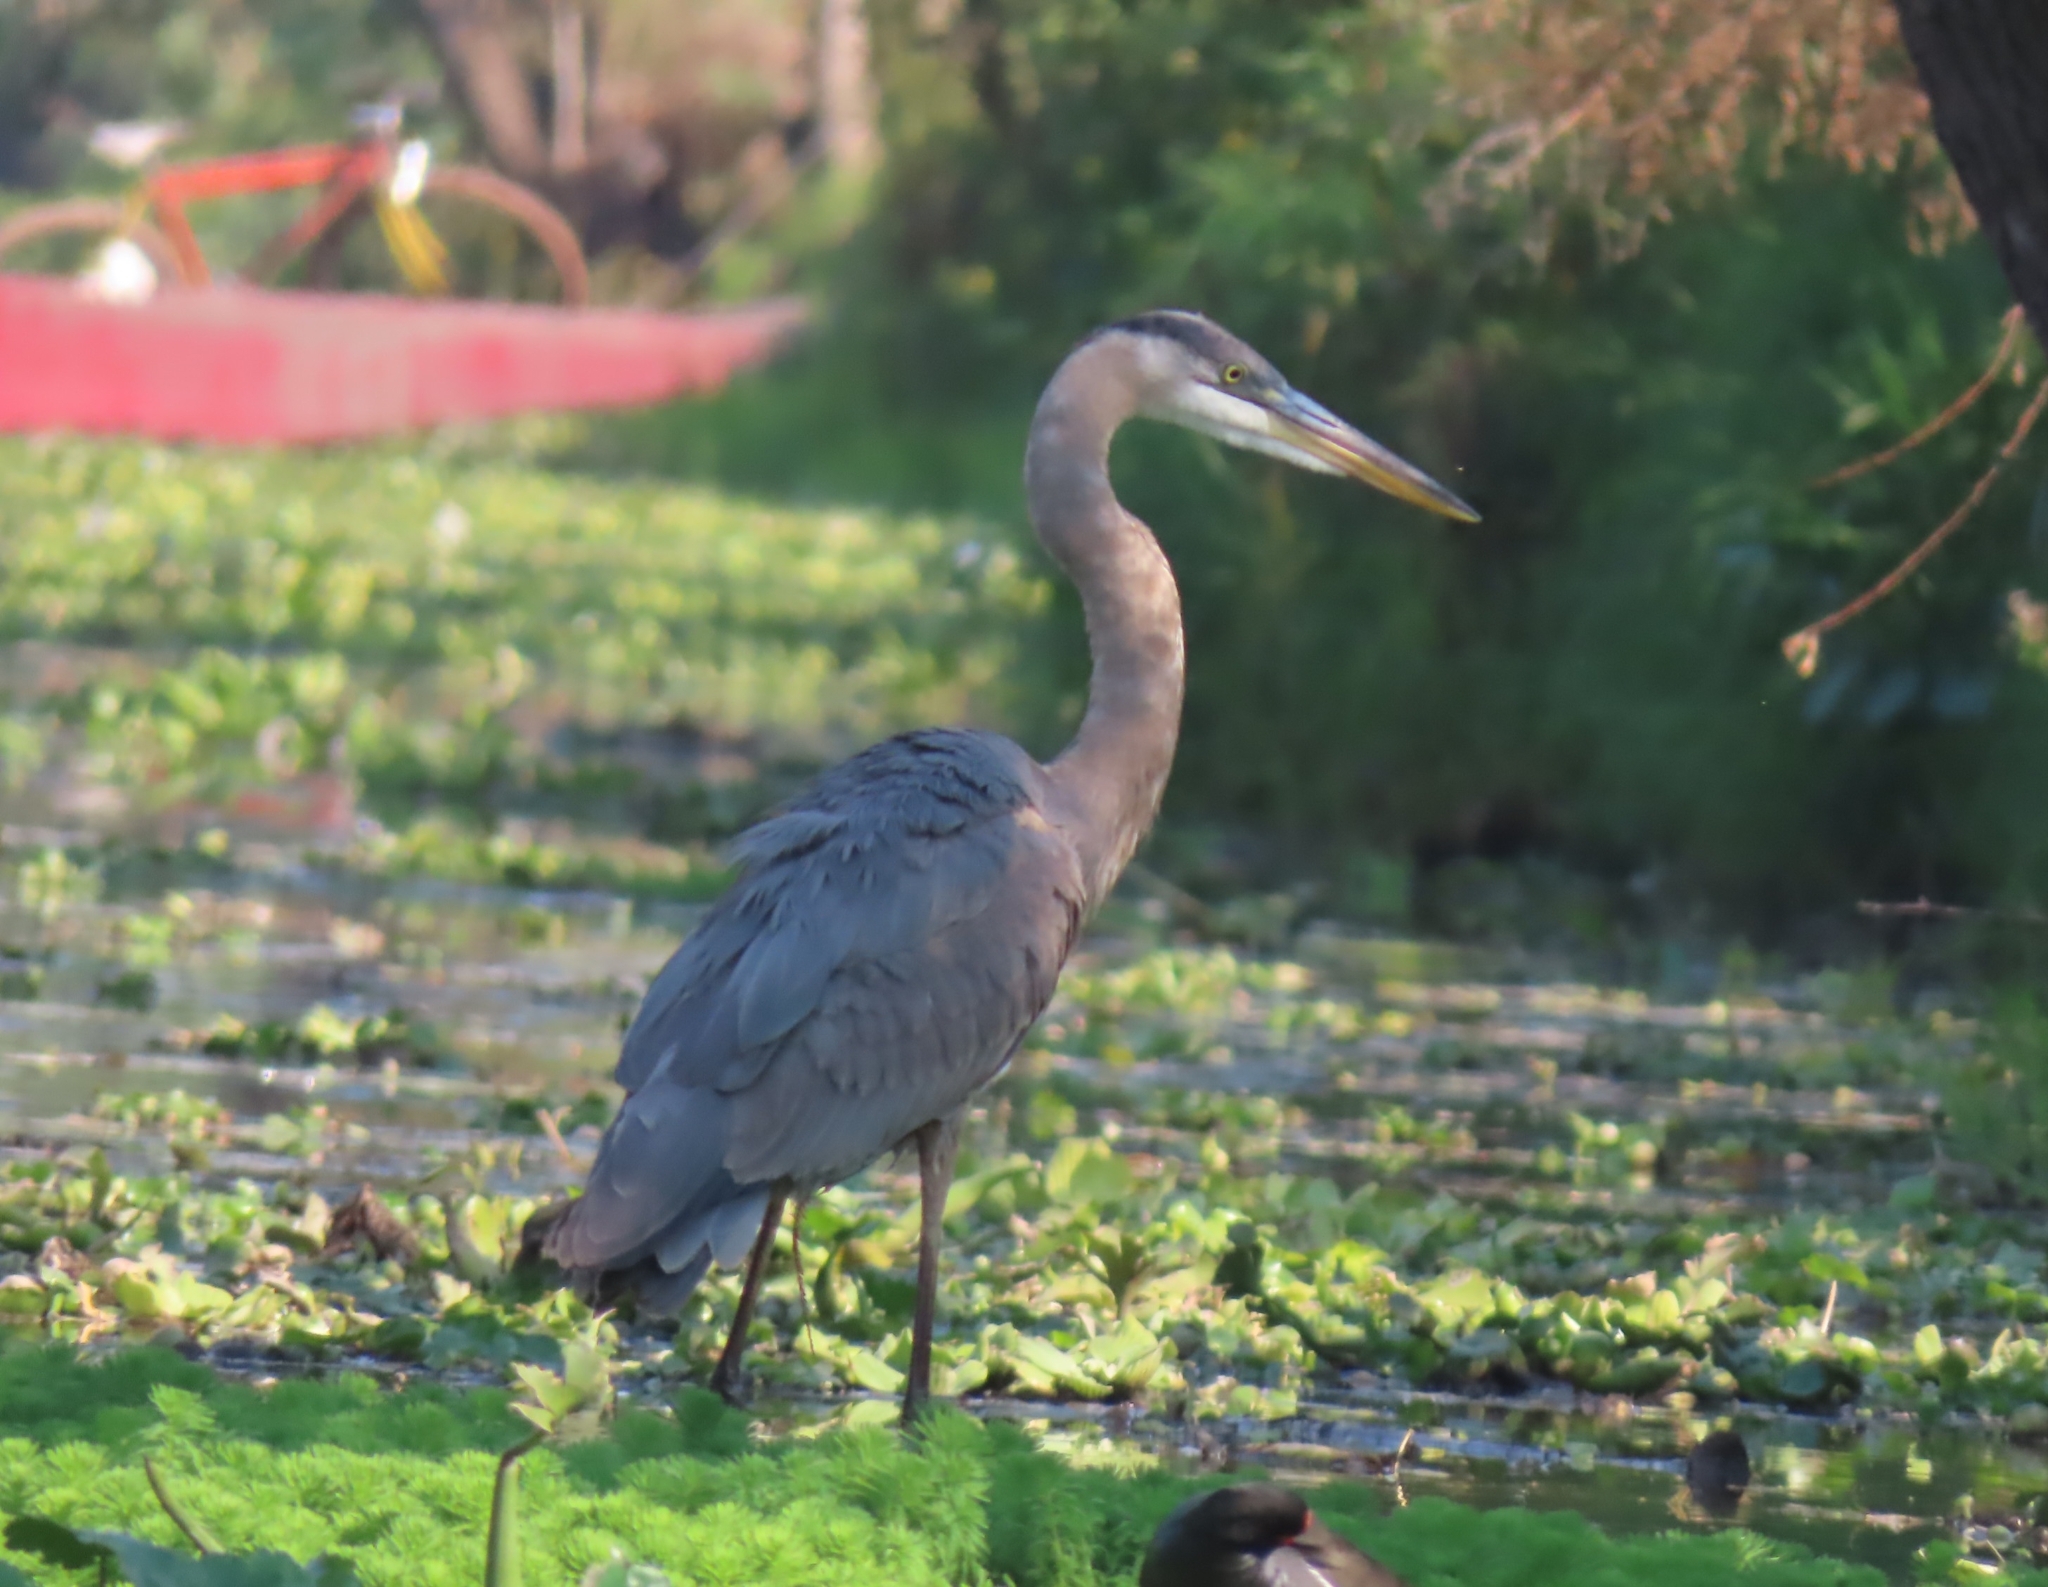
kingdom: Animalia
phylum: Chordata
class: Aves
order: Pelecaniformes
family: Ardeidae
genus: Ardea
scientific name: Ardea herodias
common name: Great blue heron
